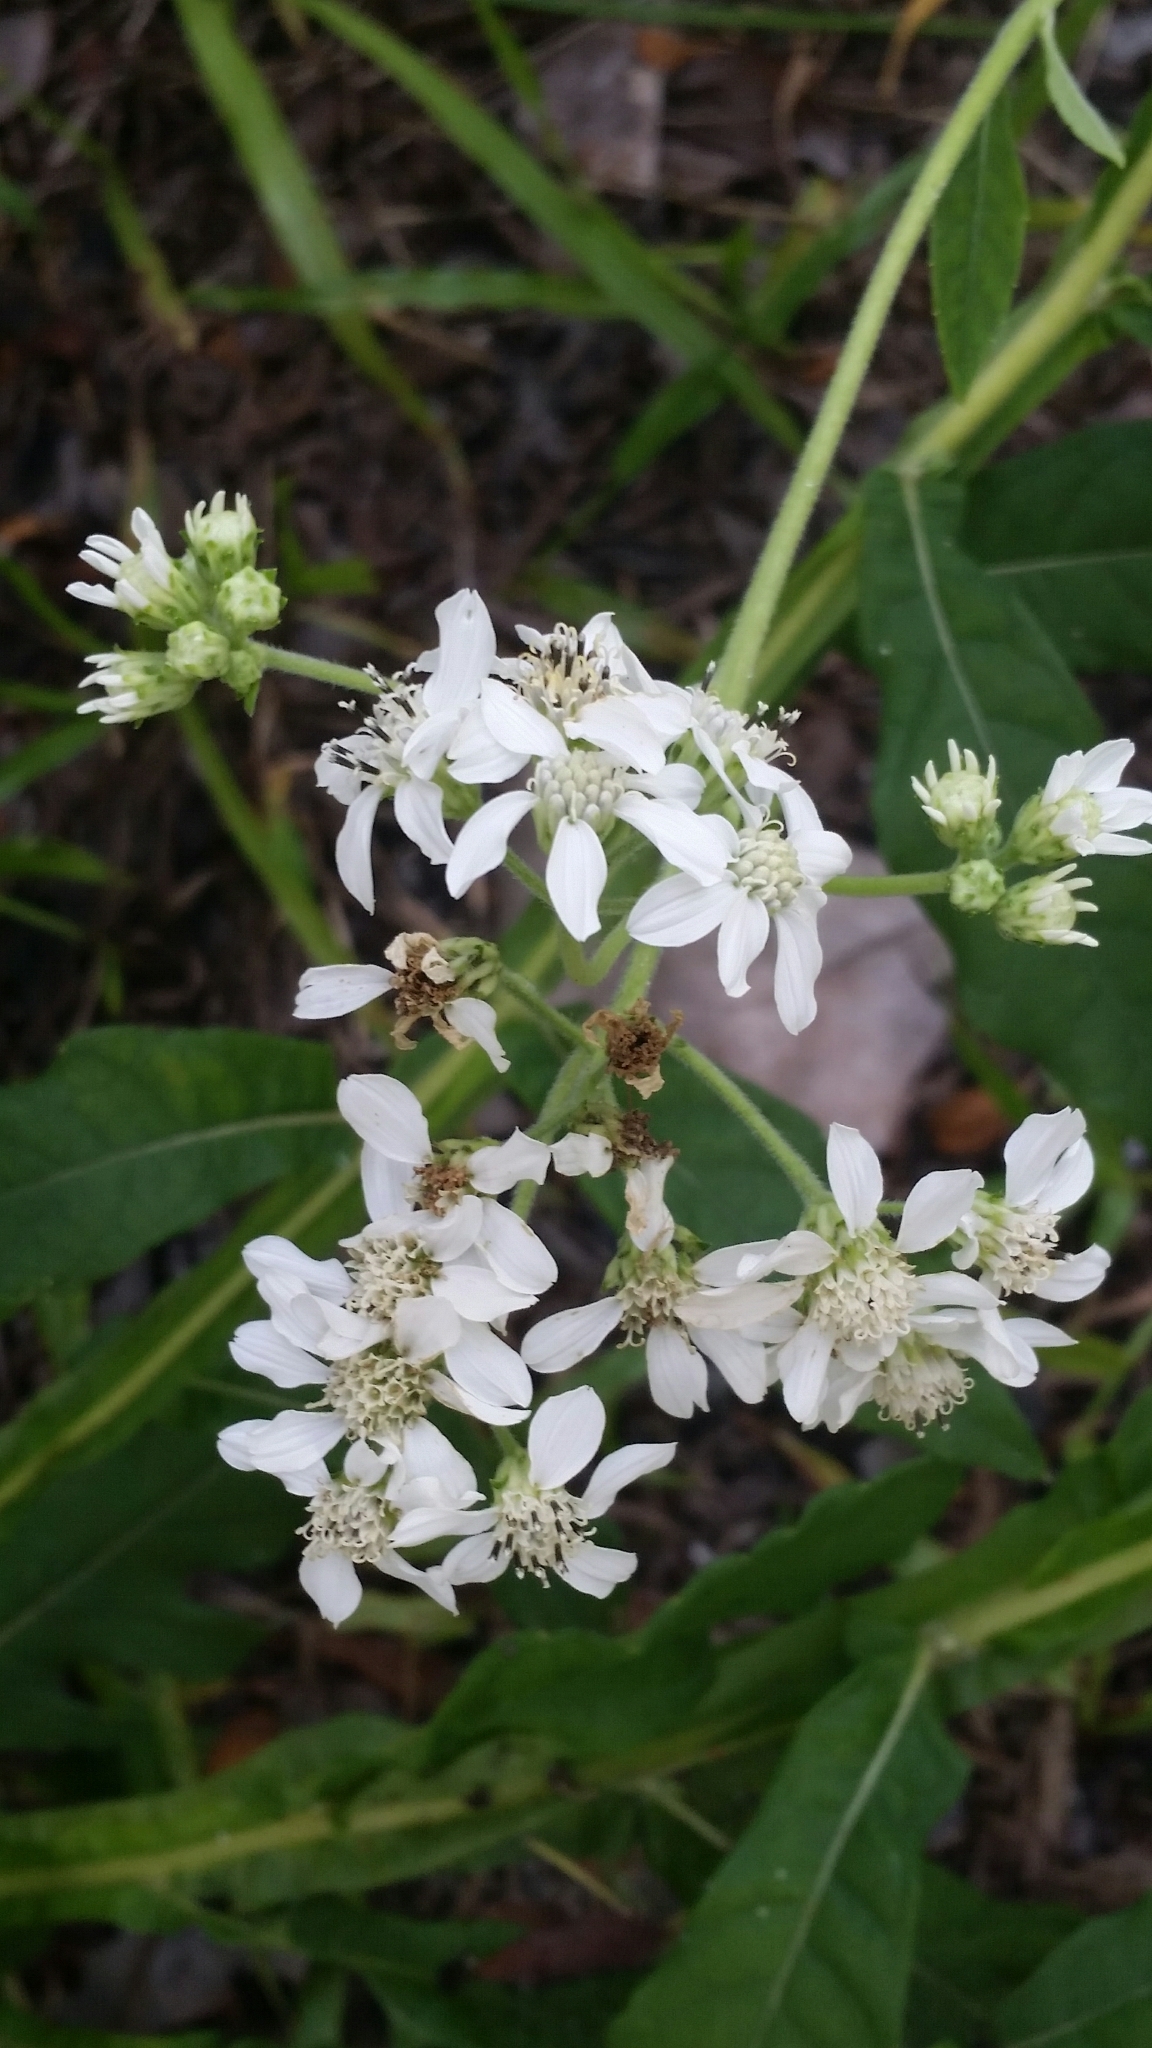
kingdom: Plantae
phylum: Tracheophyta
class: Magnoliopsida
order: Asterales
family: Asteraceae
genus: Verbesina
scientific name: Verbesina virginica
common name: Frostweed
